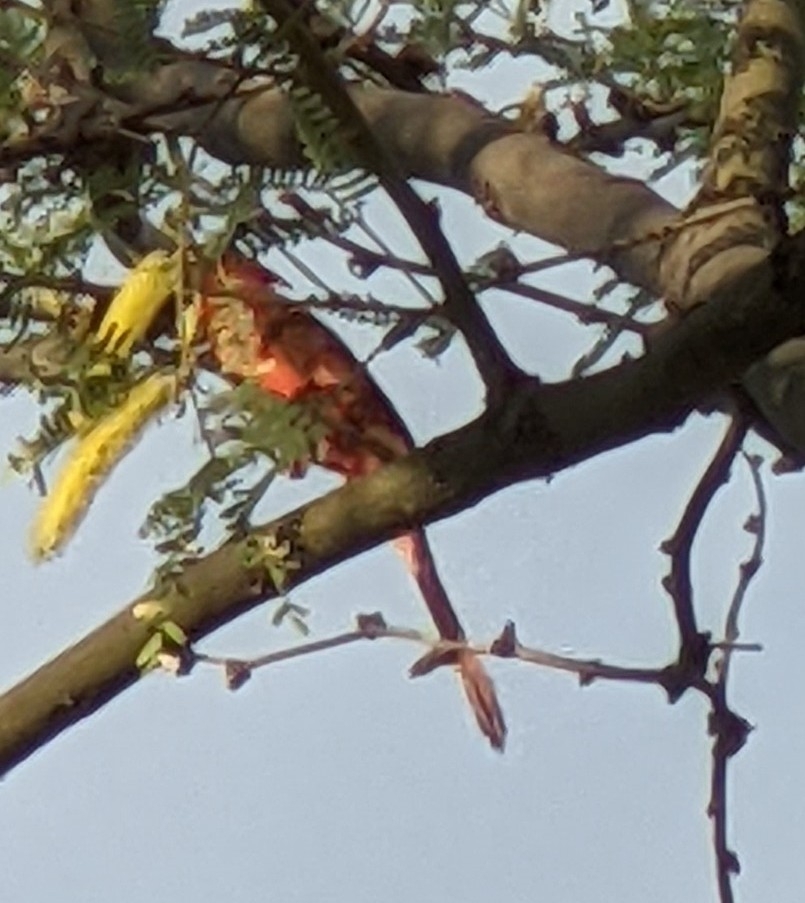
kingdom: Animalia
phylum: Chordata
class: Aves
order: Passeriformes
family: Cardinalidae
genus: Cardinalis
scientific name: Cardinalis cardinalis
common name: Northern cardinal
